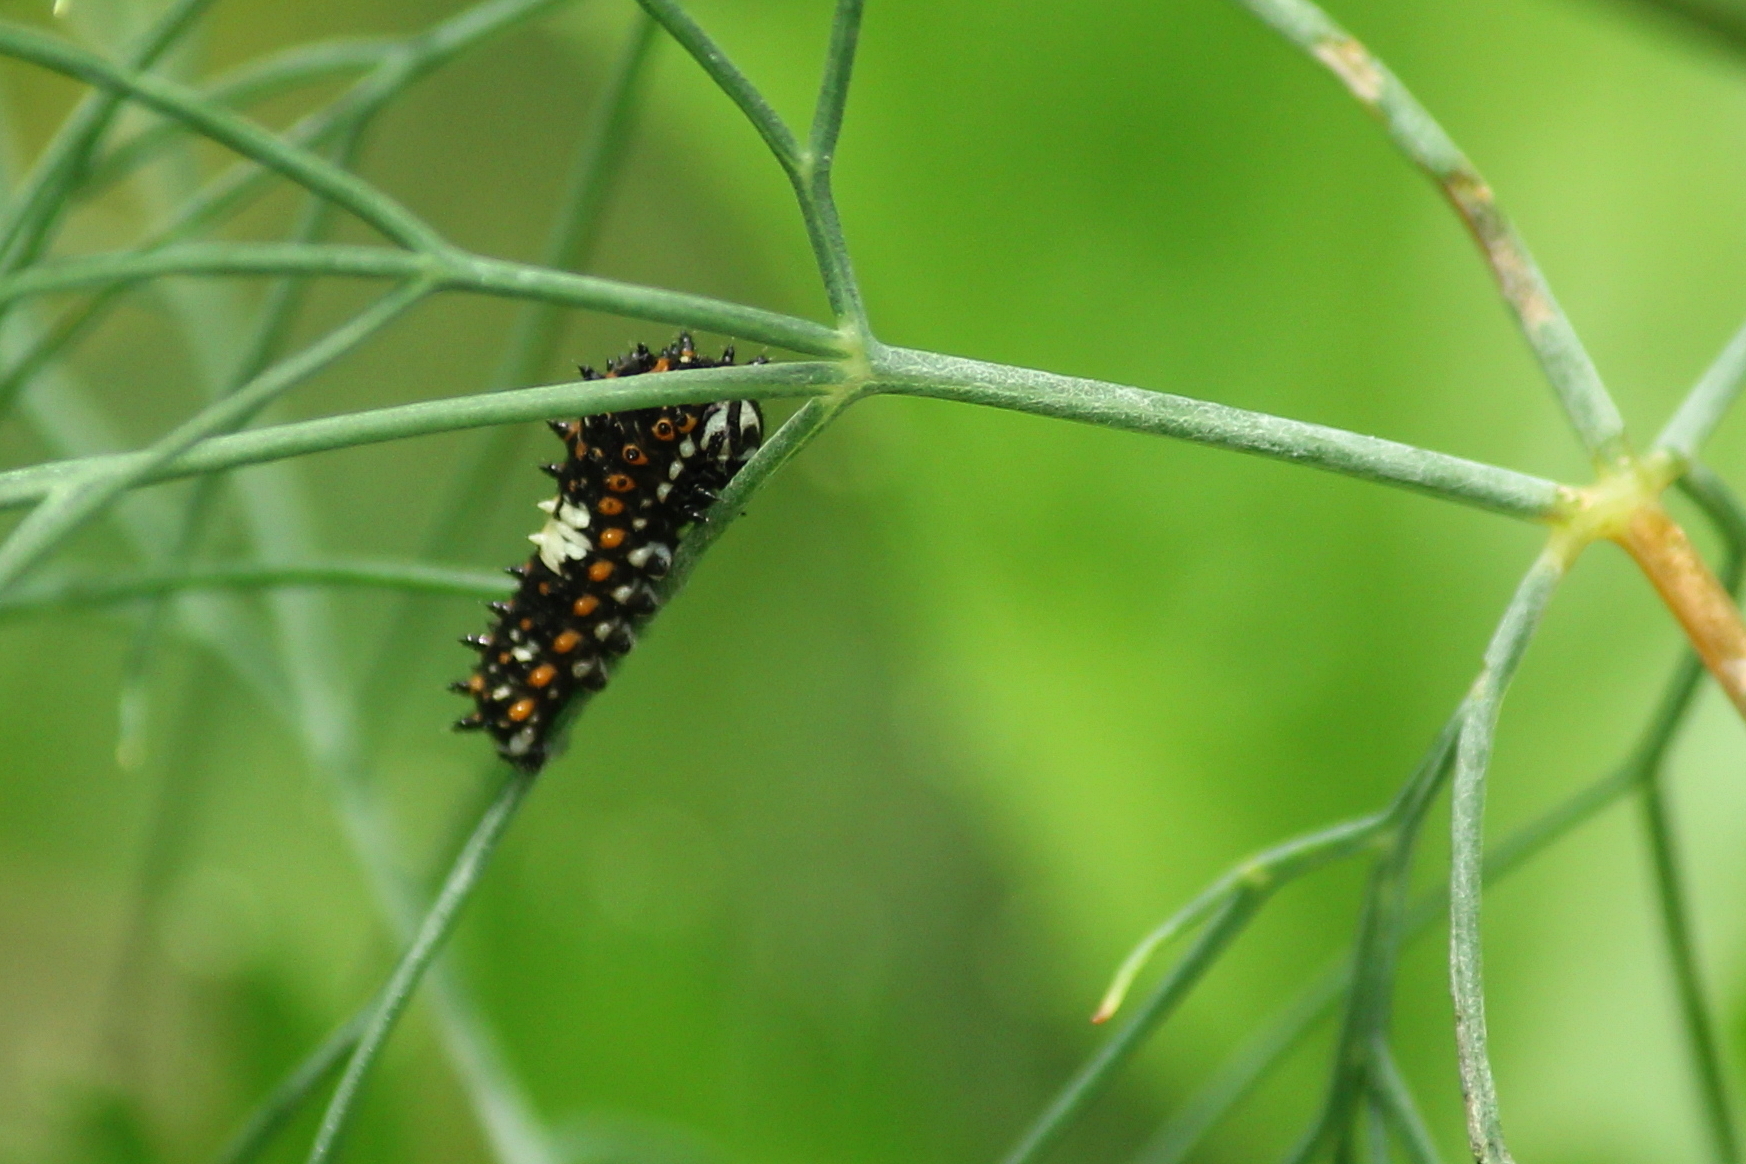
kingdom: Animalia
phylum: Arthropoda
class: Insecta
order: Lepidoptera
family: Papilionidae
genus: Papilio
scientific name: Papilio polyxenes
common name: Black swallowtail
